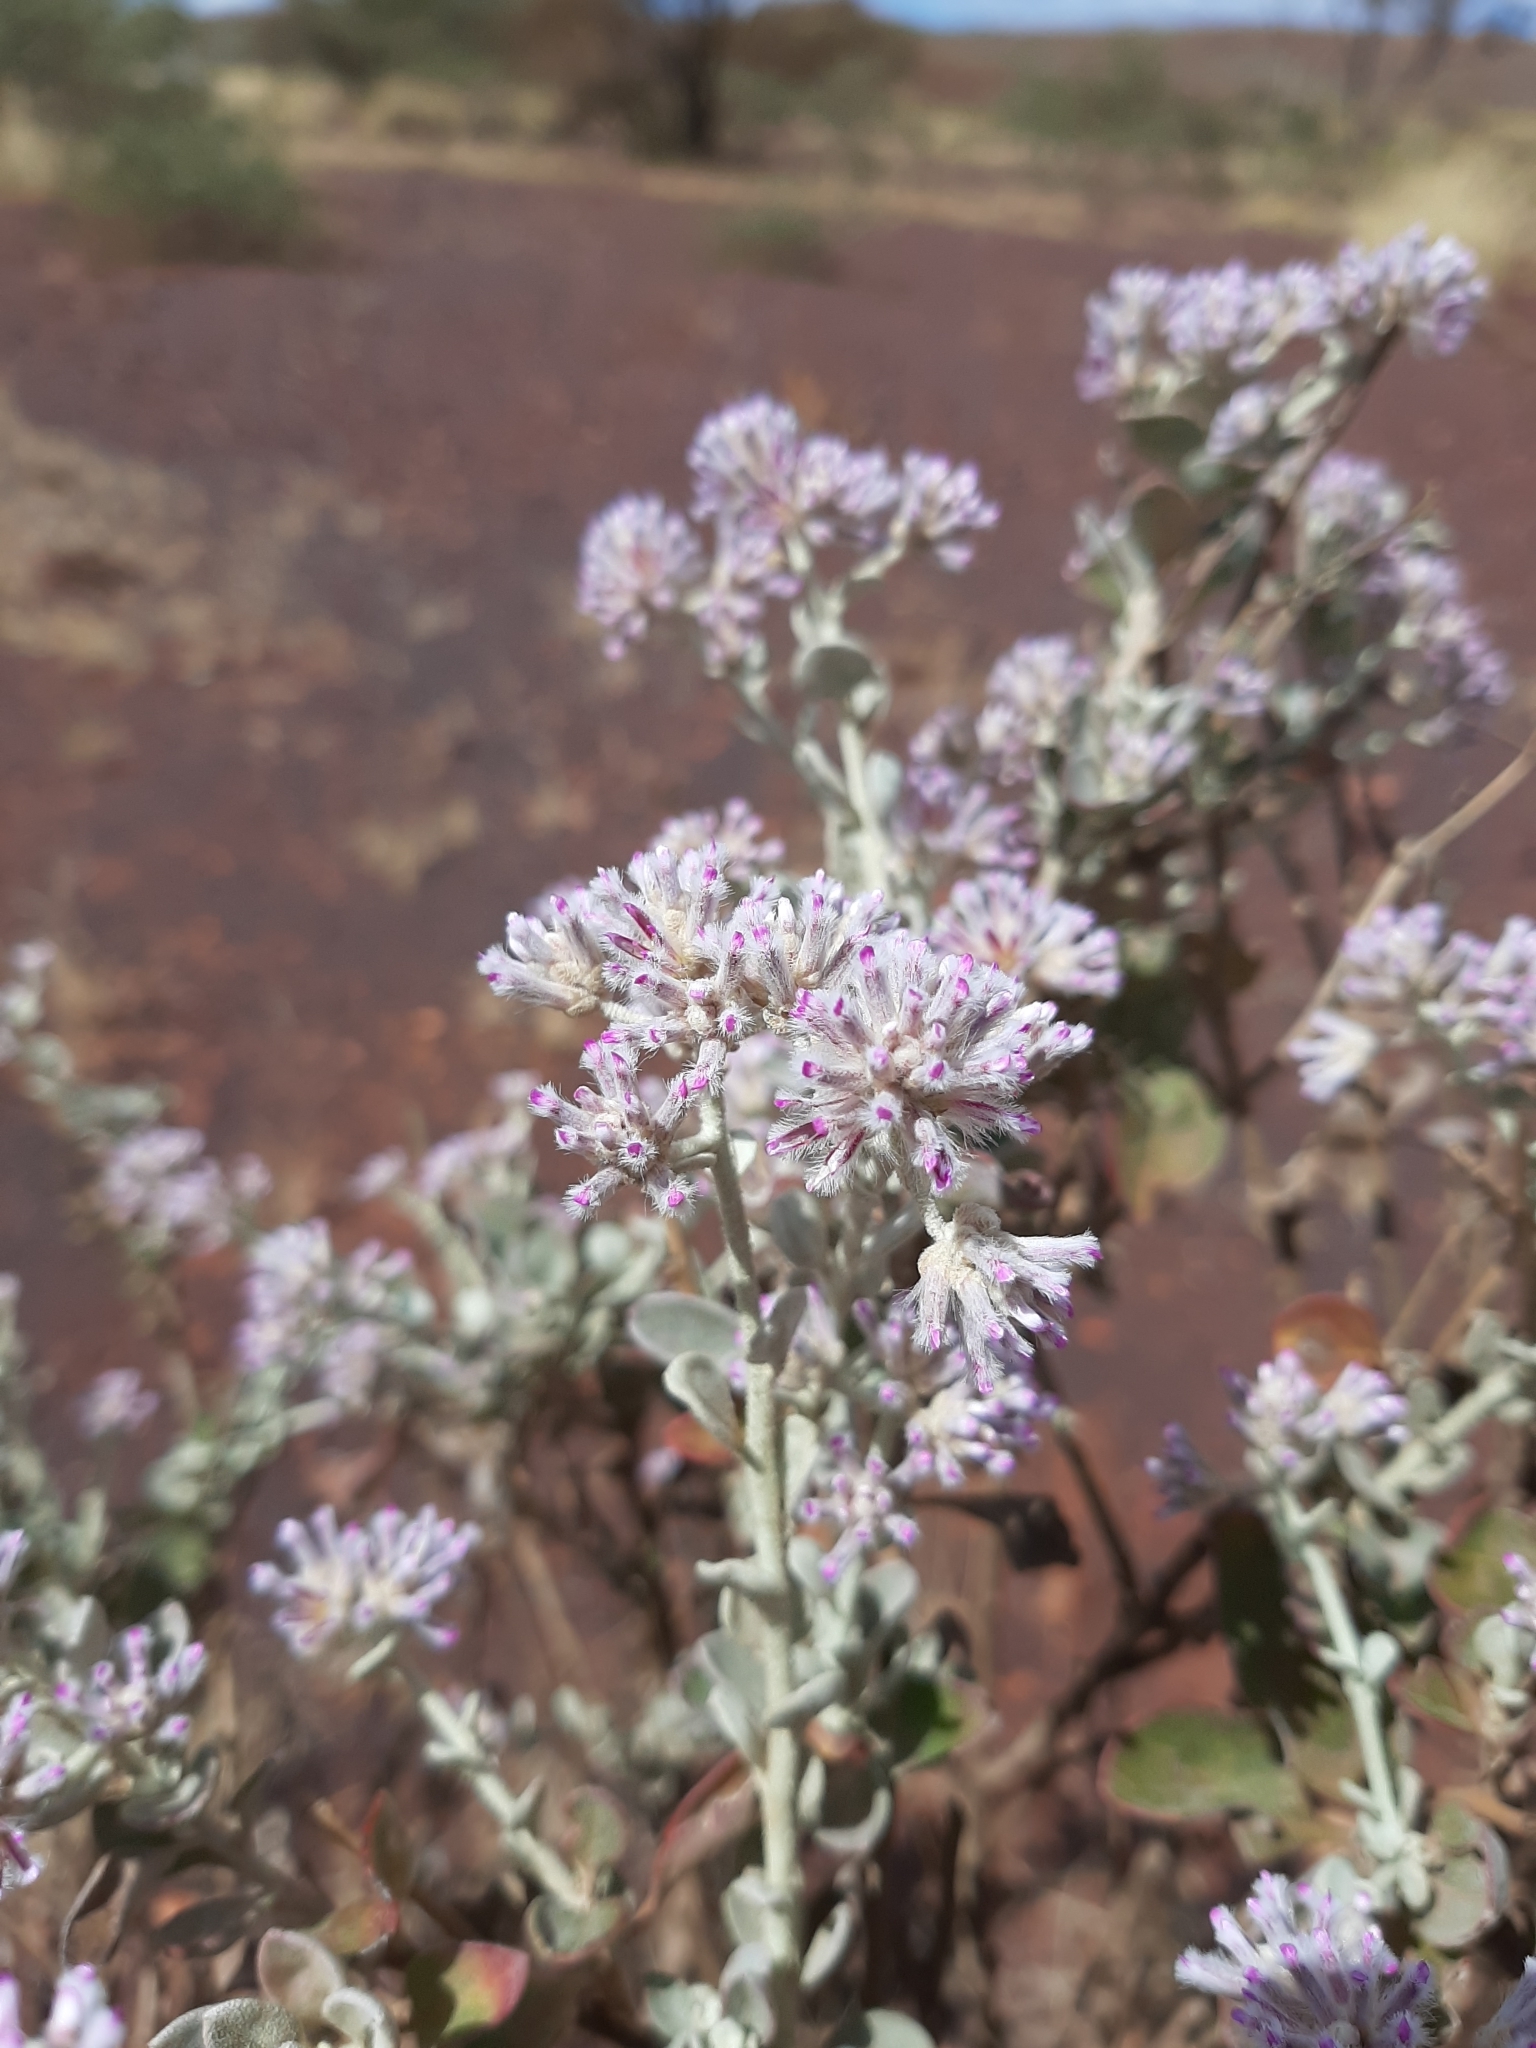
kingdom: Plantae
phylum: Tracheophyta
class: Magnoliopsida
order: Caryophyllales
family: Amaranthaceae
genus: Ptilotus
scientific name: Ptilotus obovatus
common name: Cottonbush
